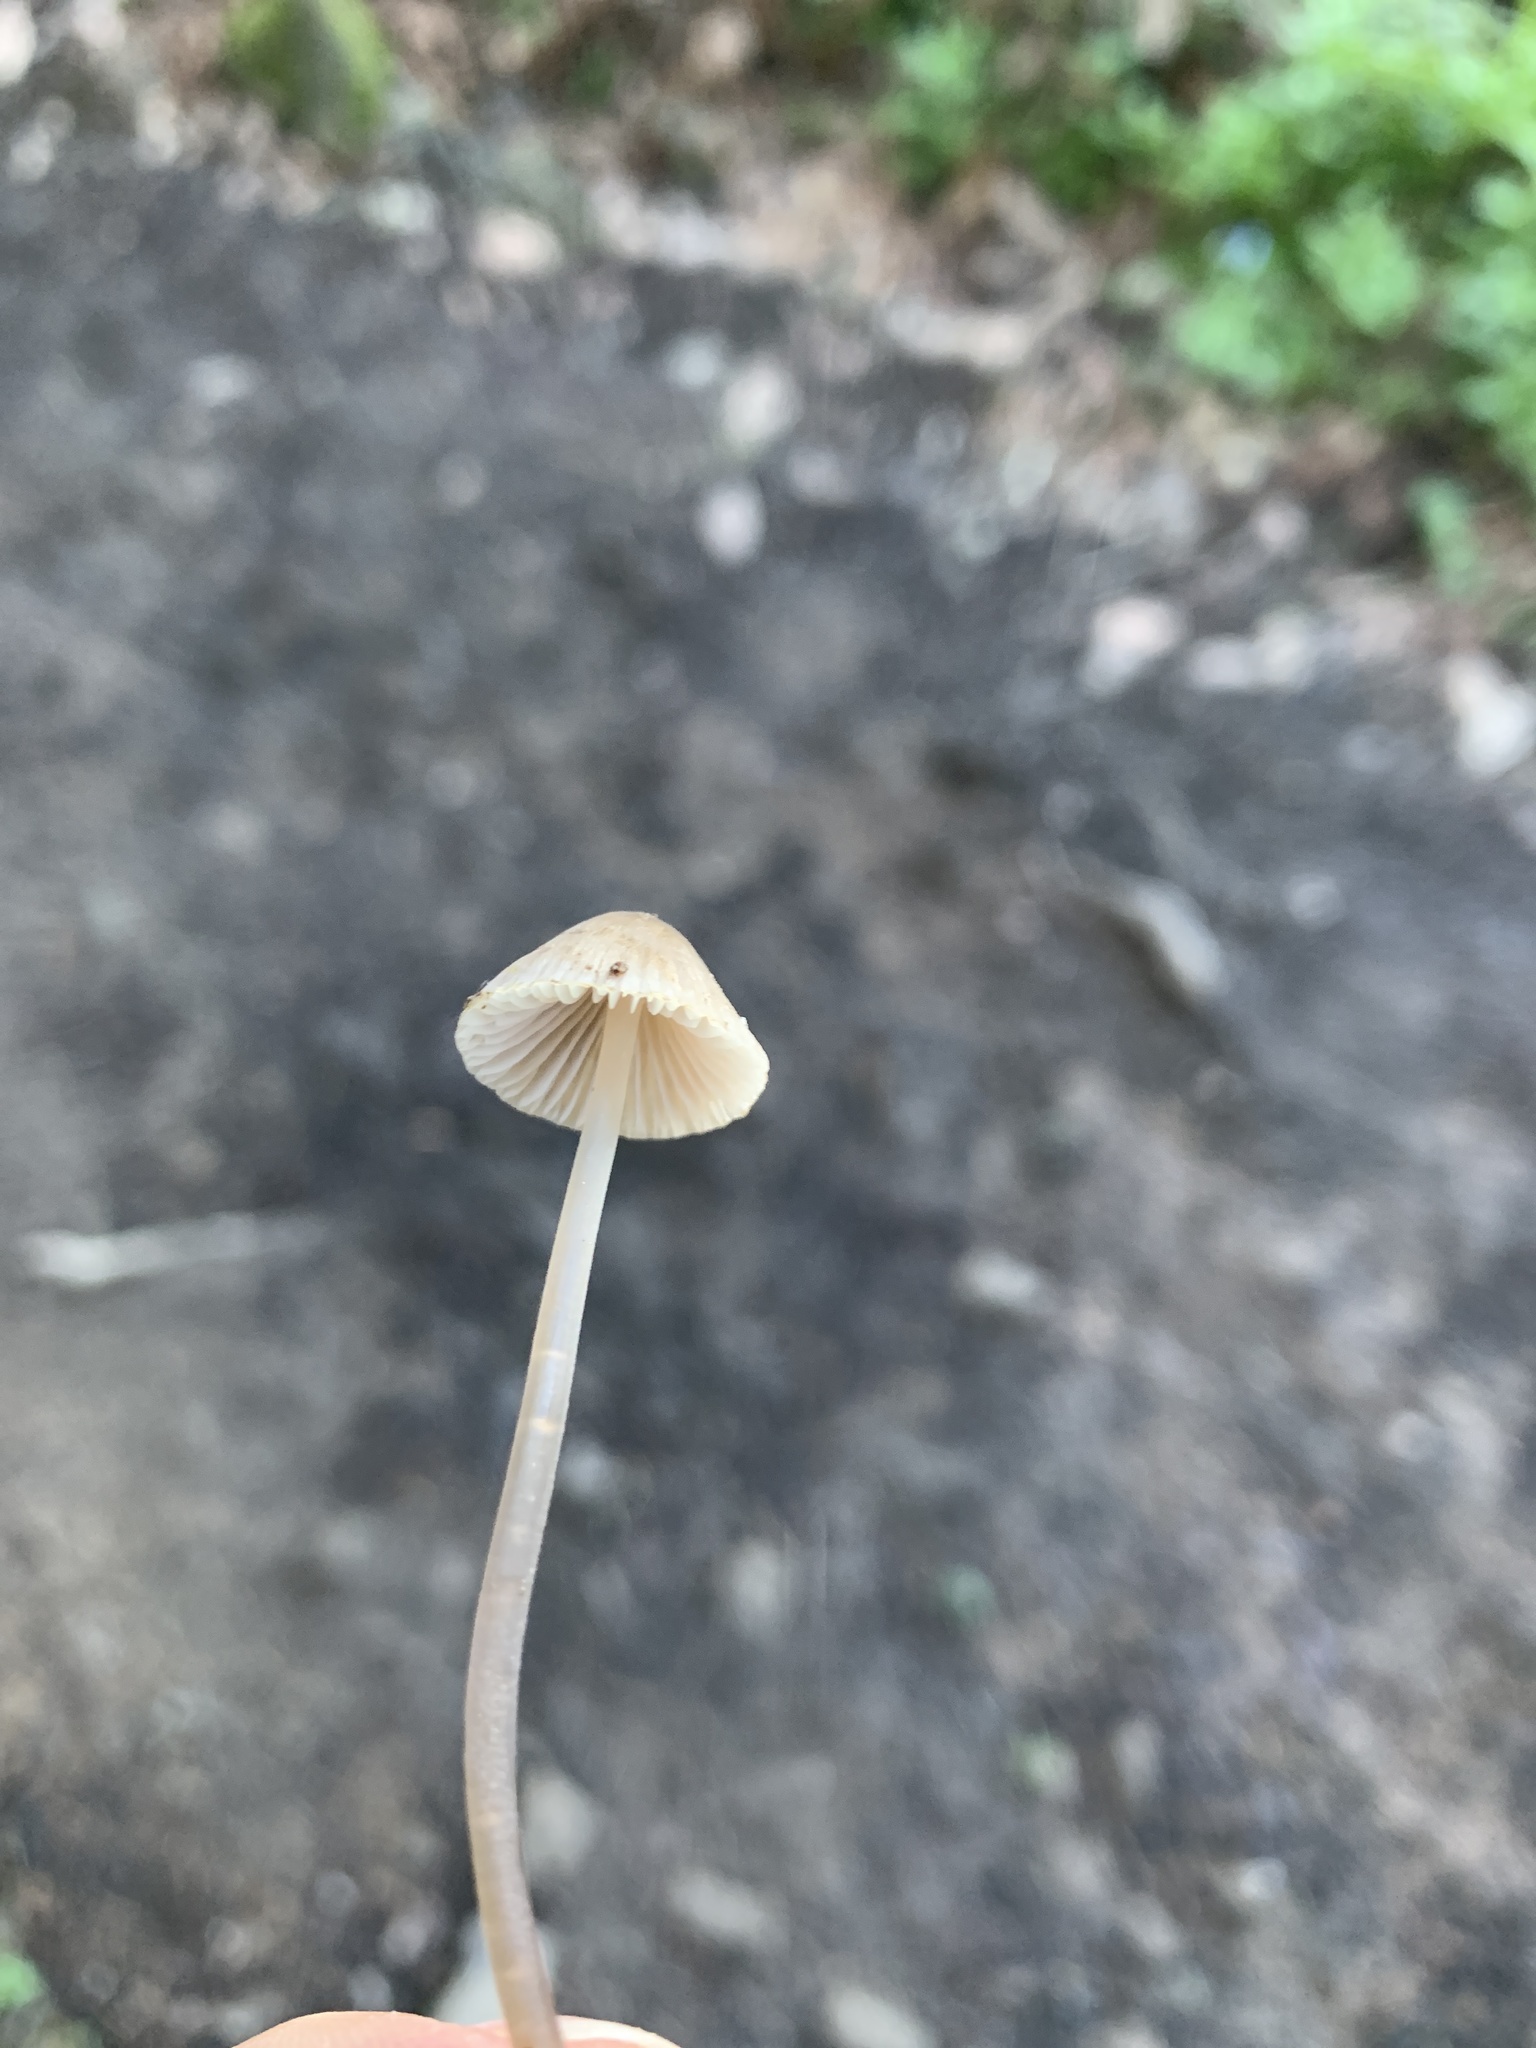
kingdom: Fungi
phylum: Basidiomycota
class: Agaricomycetes
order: Agaricales
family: Mycenaceae
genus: Mycena
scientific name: Mycena galopus
